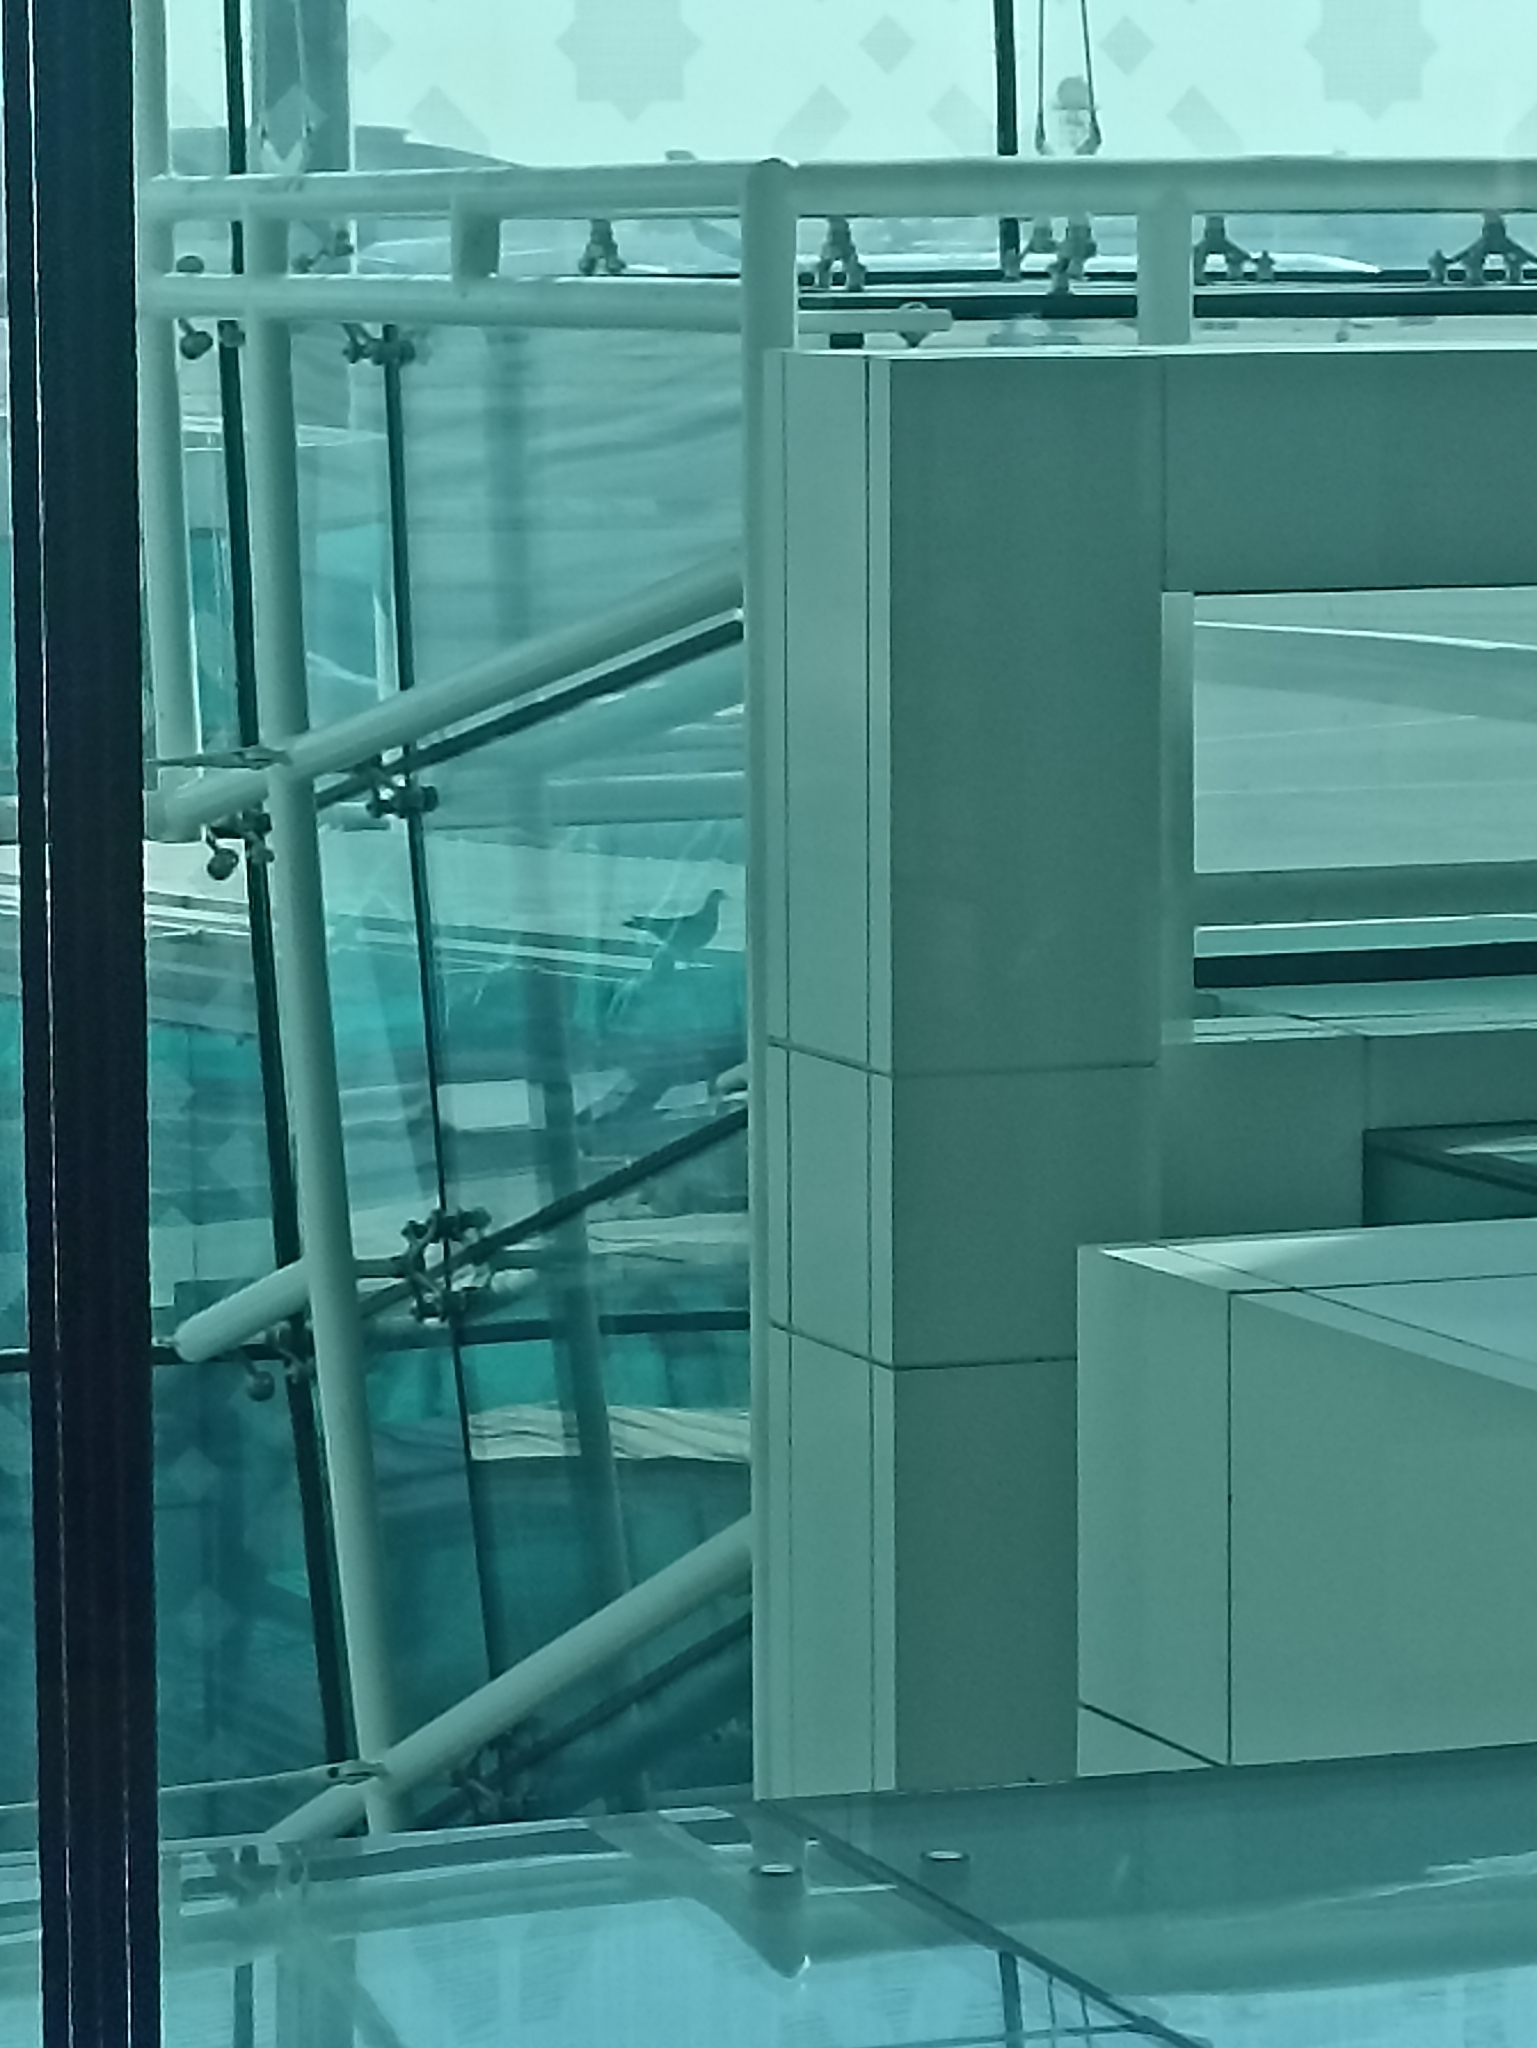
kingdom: Animalia
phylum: Chordata
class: Aves
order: Columbiformes
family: Columbidae
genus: Columba
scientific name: Columba livia
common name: Rock pigeon
